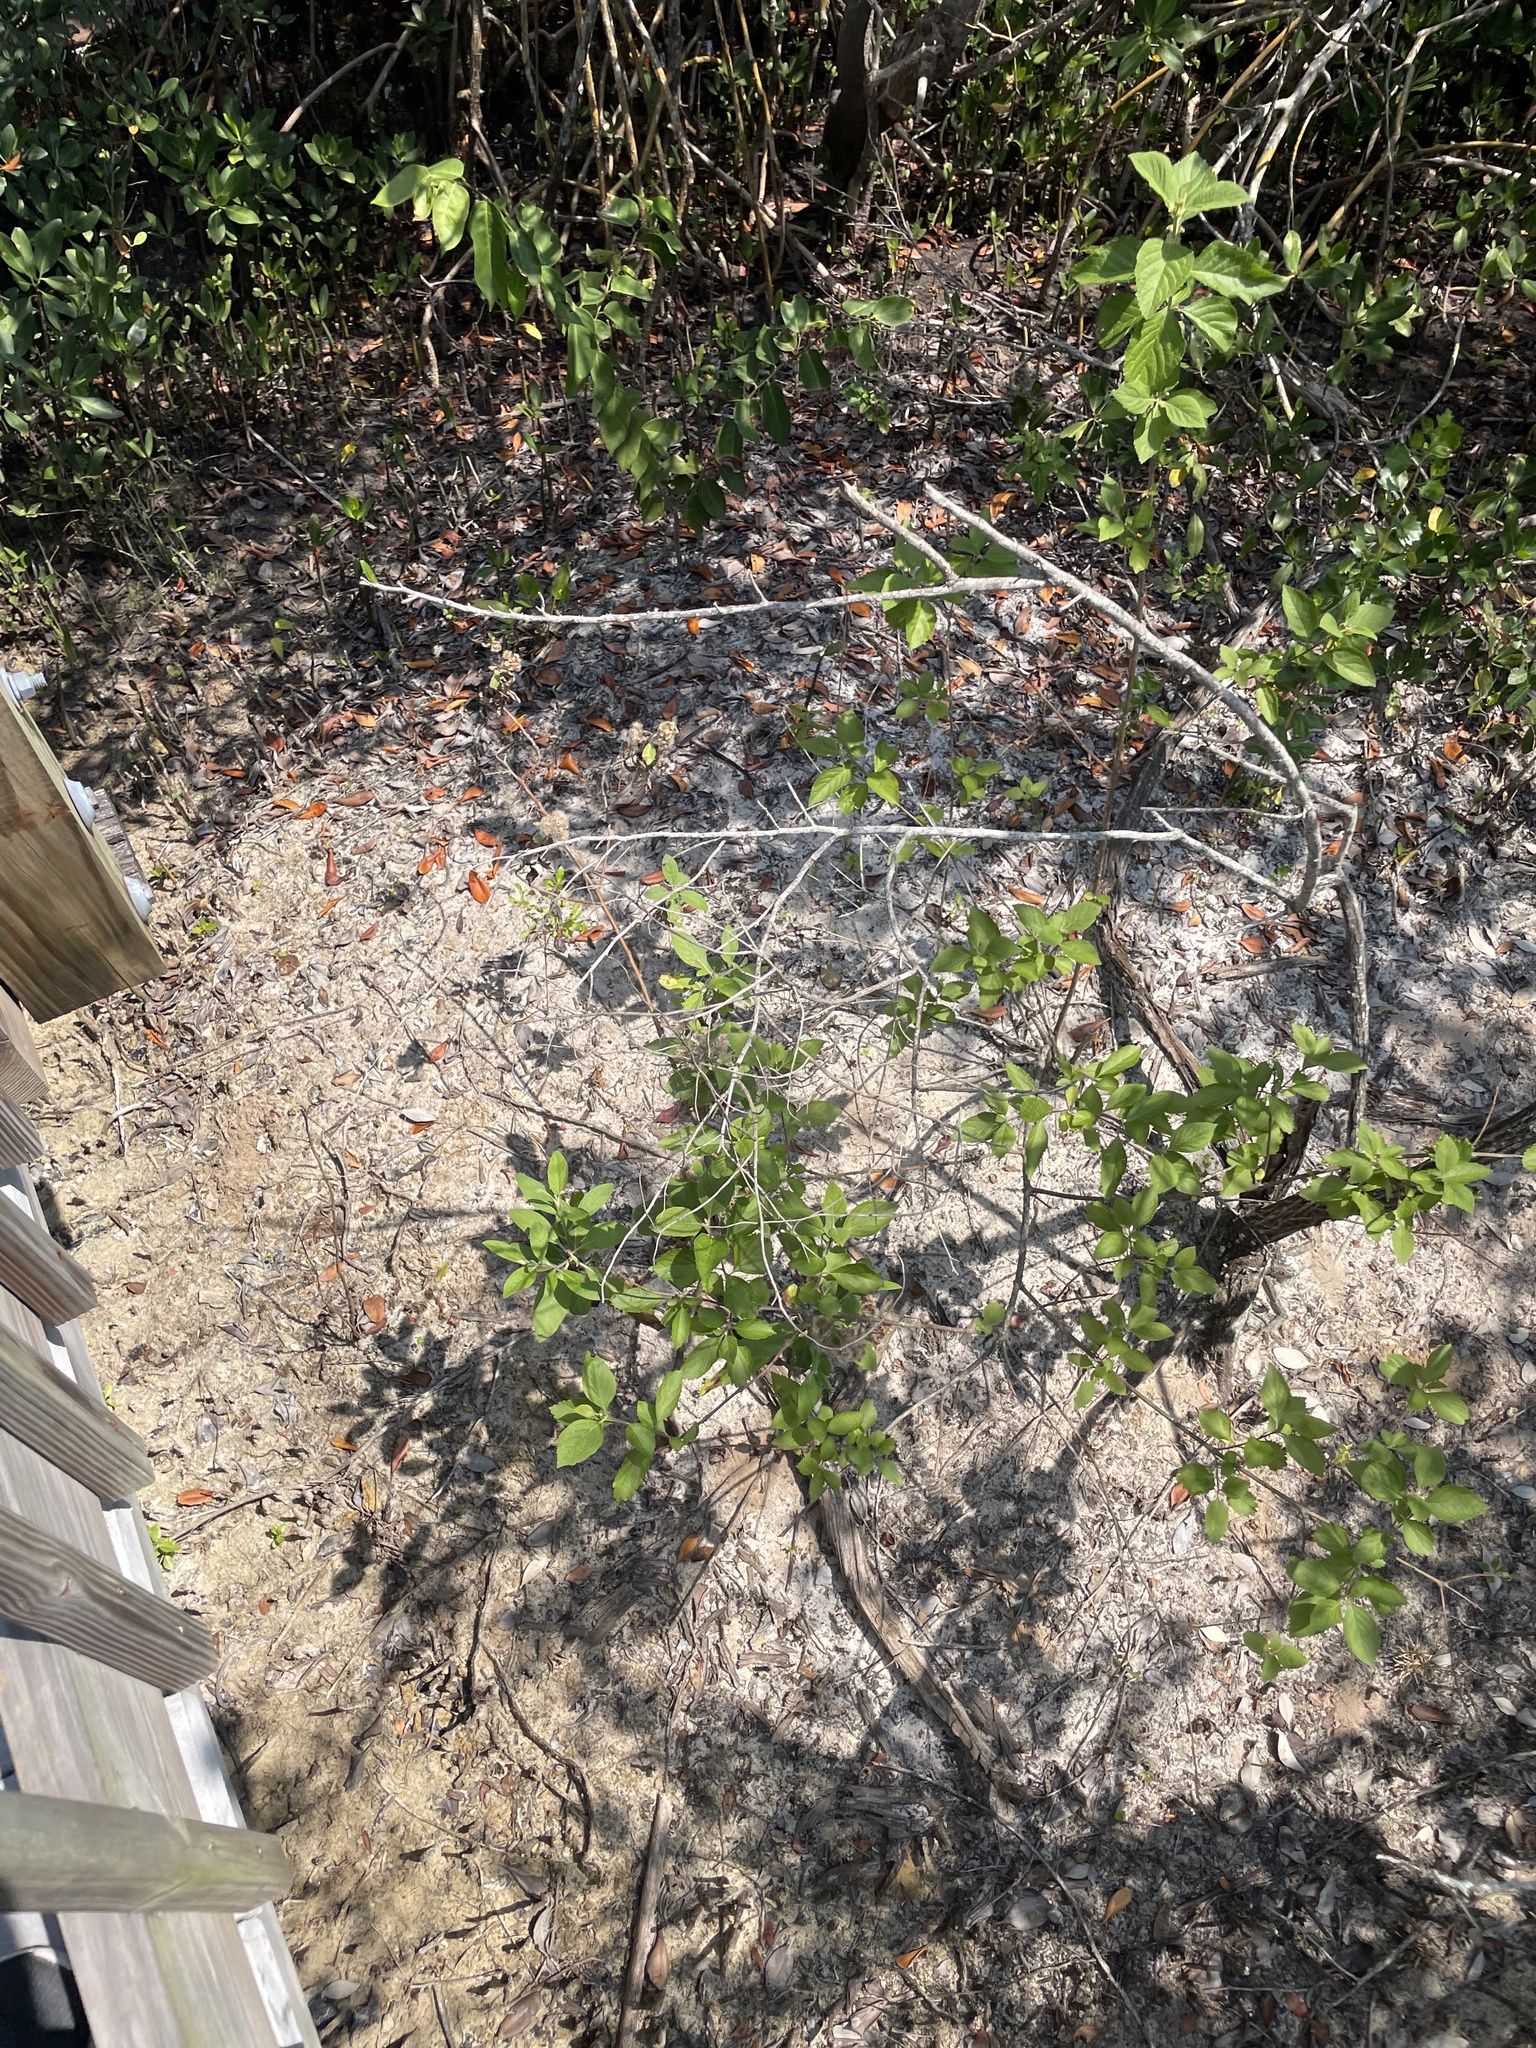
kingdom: Plantae
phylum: Tracheophyta
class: Magnoliopsida
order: Lamiales
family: Lamiaceae
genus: Callicarpa
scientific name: Callicarpa americana
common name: American beautyberry
